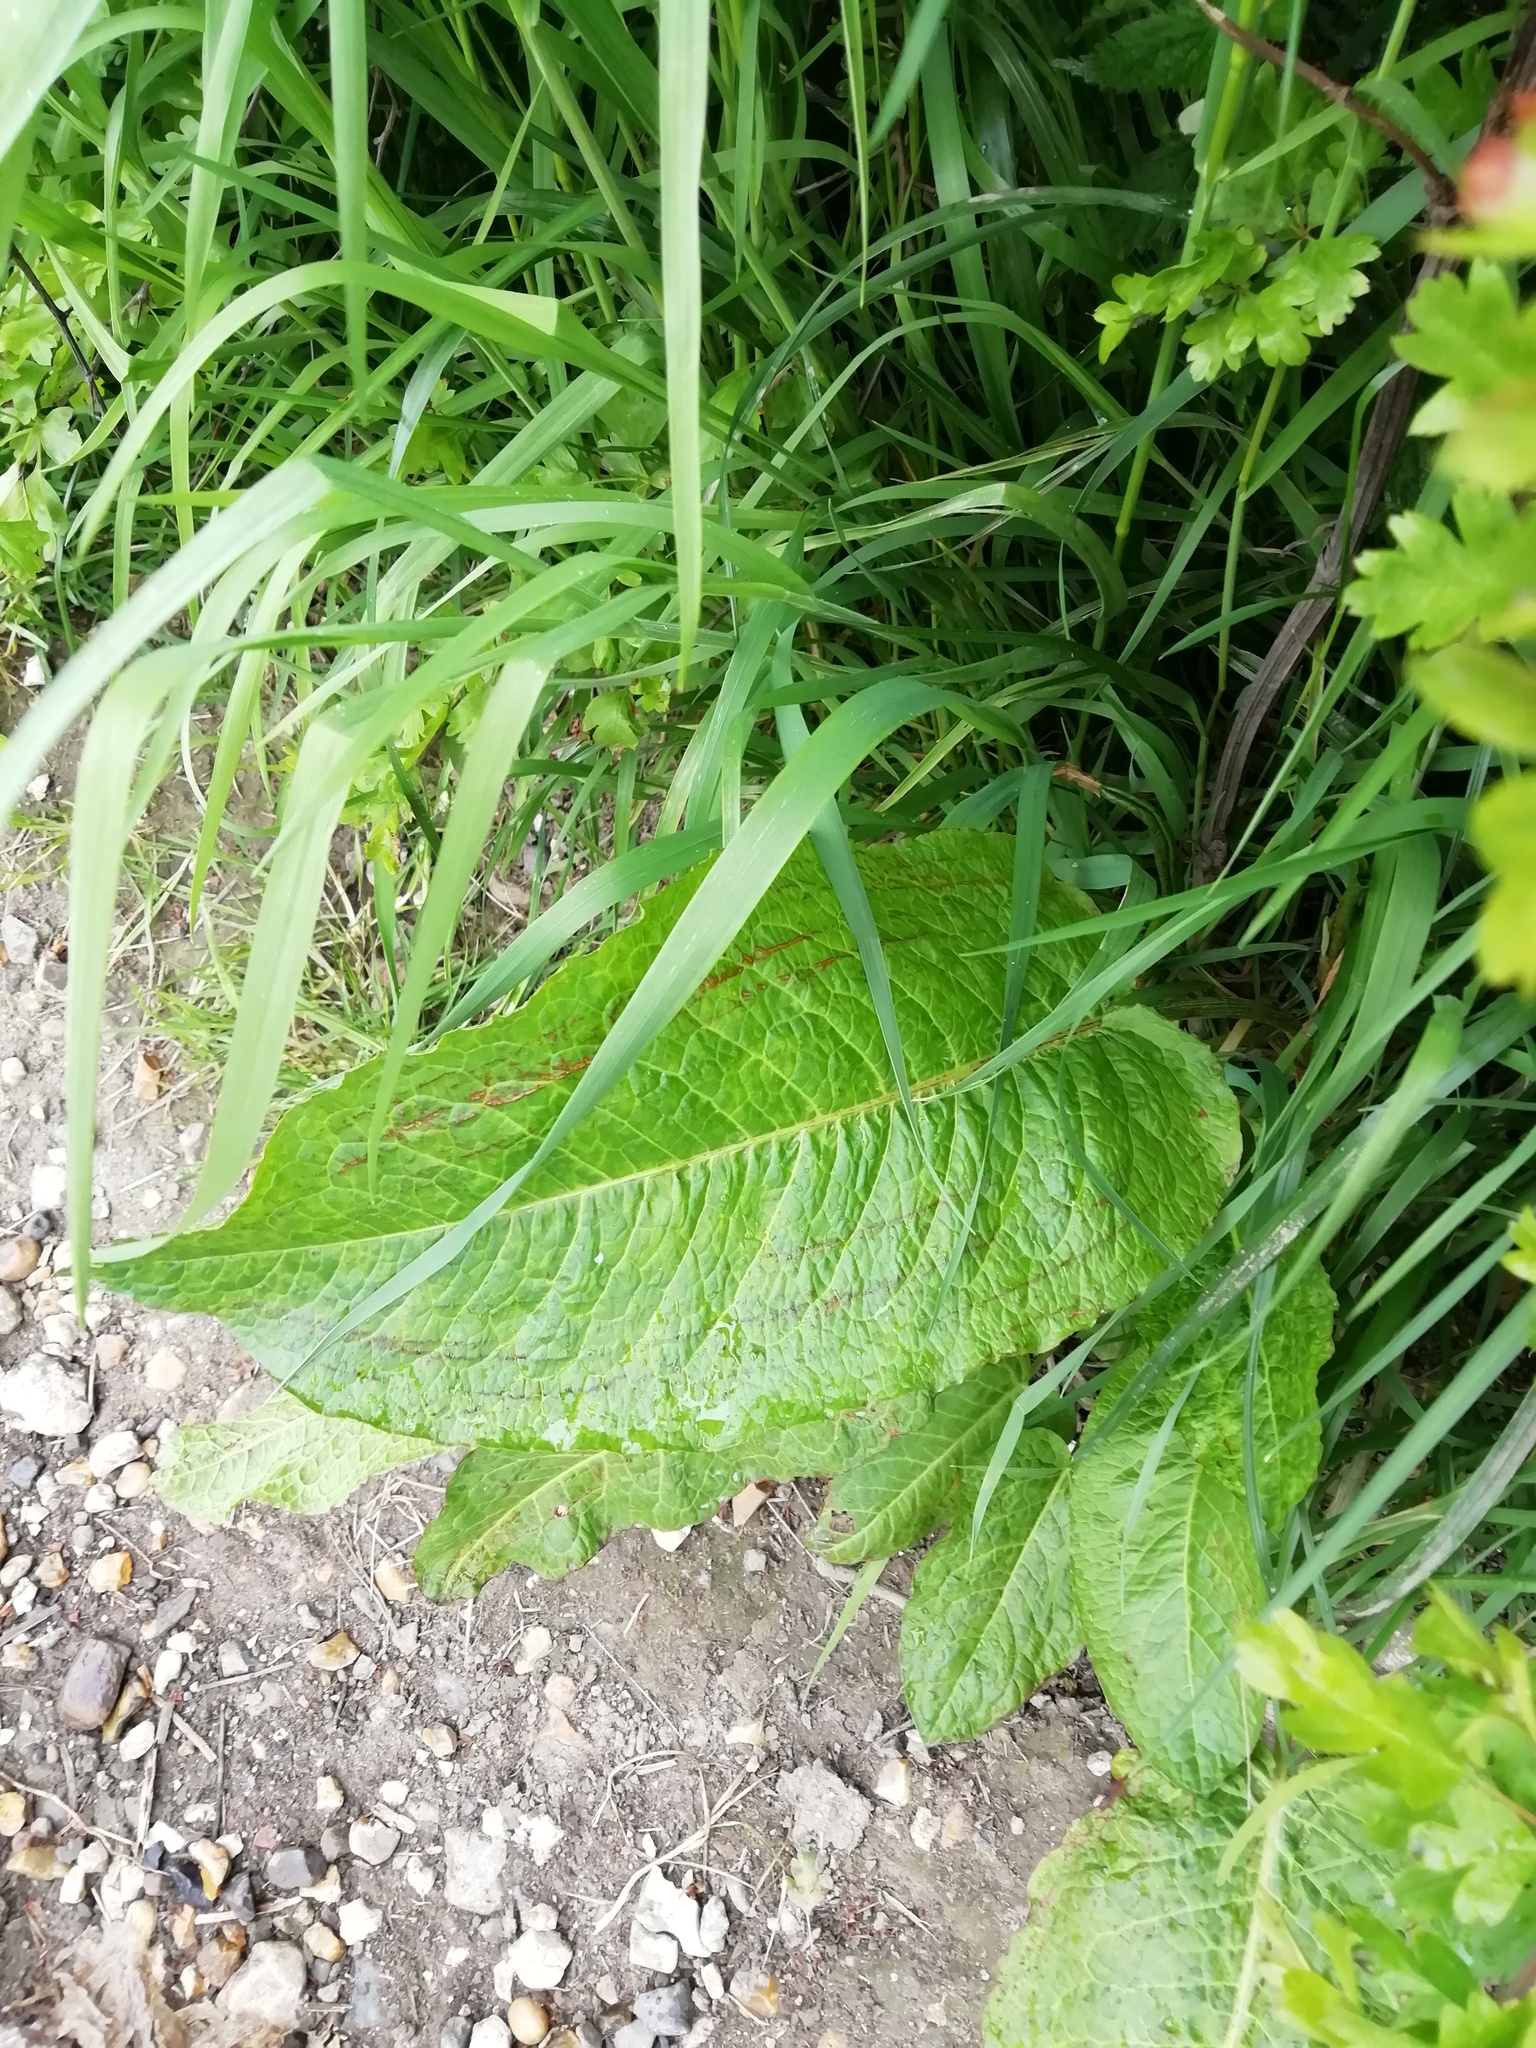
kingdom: Plantae
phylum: Tracheophyta
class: Magnoliopsida
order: Caryophyllales
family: Polygonaceae
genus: Rumex
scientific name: Rumex obtusifolius
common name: Bitter dock
